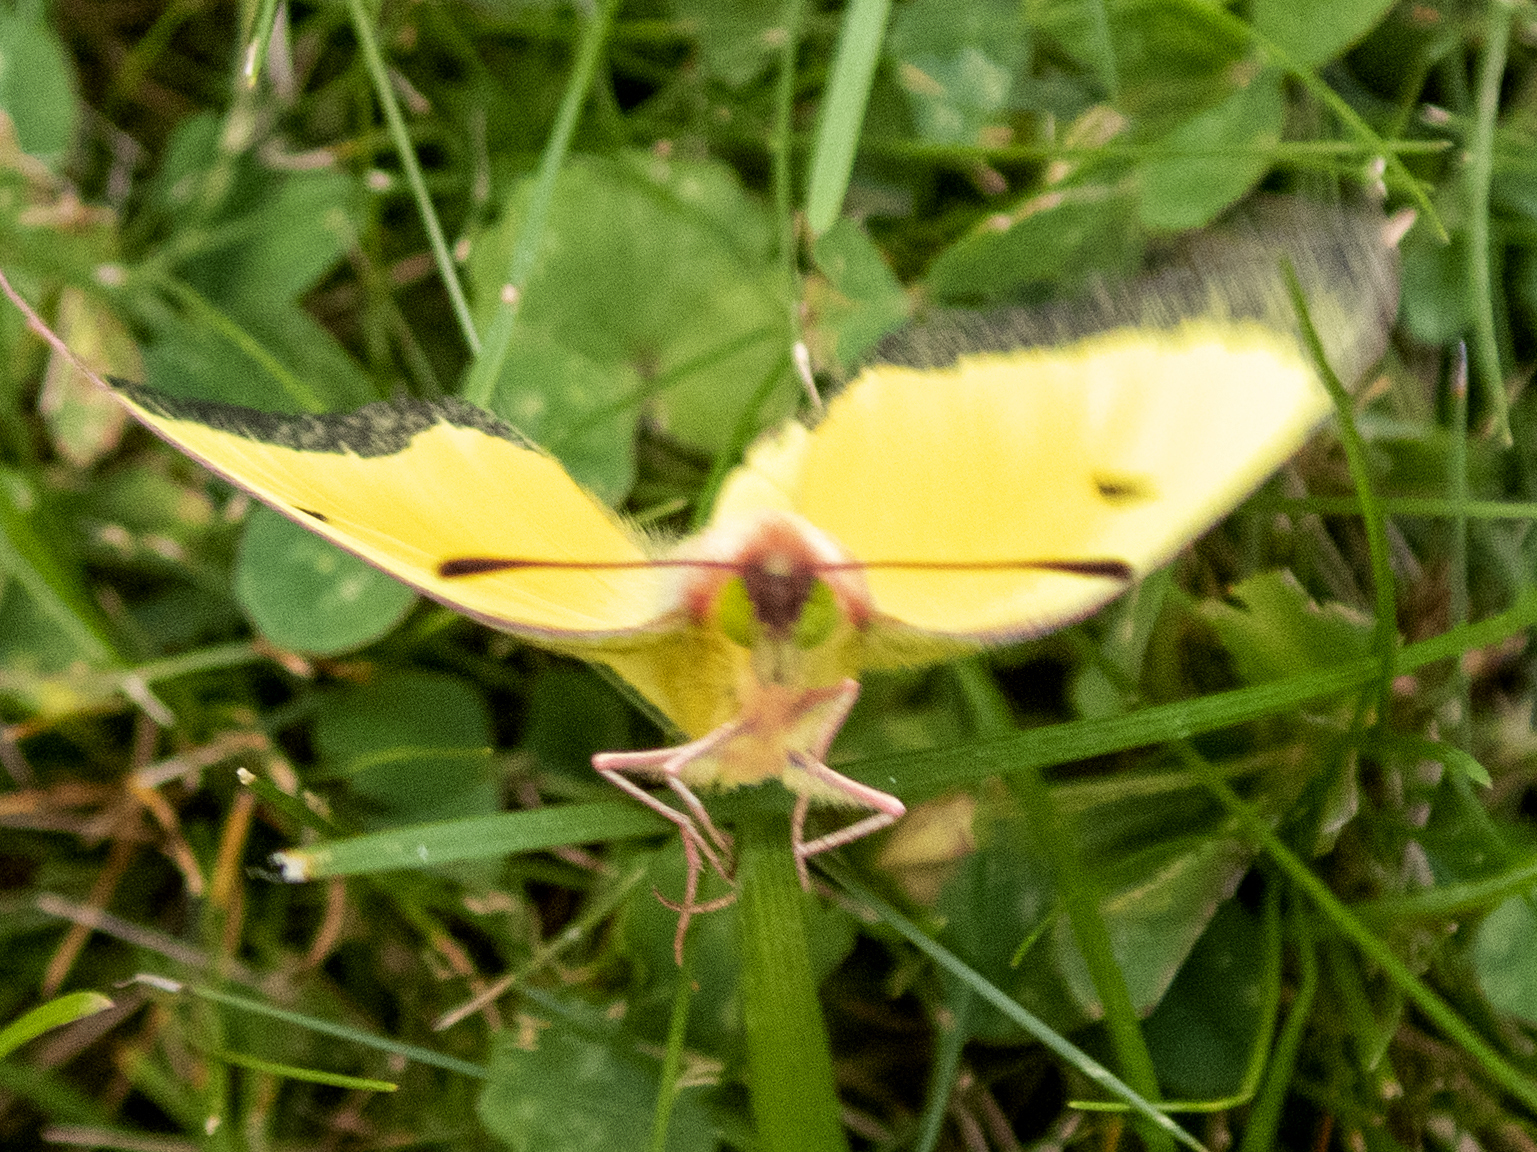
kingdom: Animalia
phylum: Arthropoda
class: Insecta
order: Lepidoptera
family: Pieridae
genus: Colias
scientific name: Colias eurytheme
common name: Alfalfa butterfly
